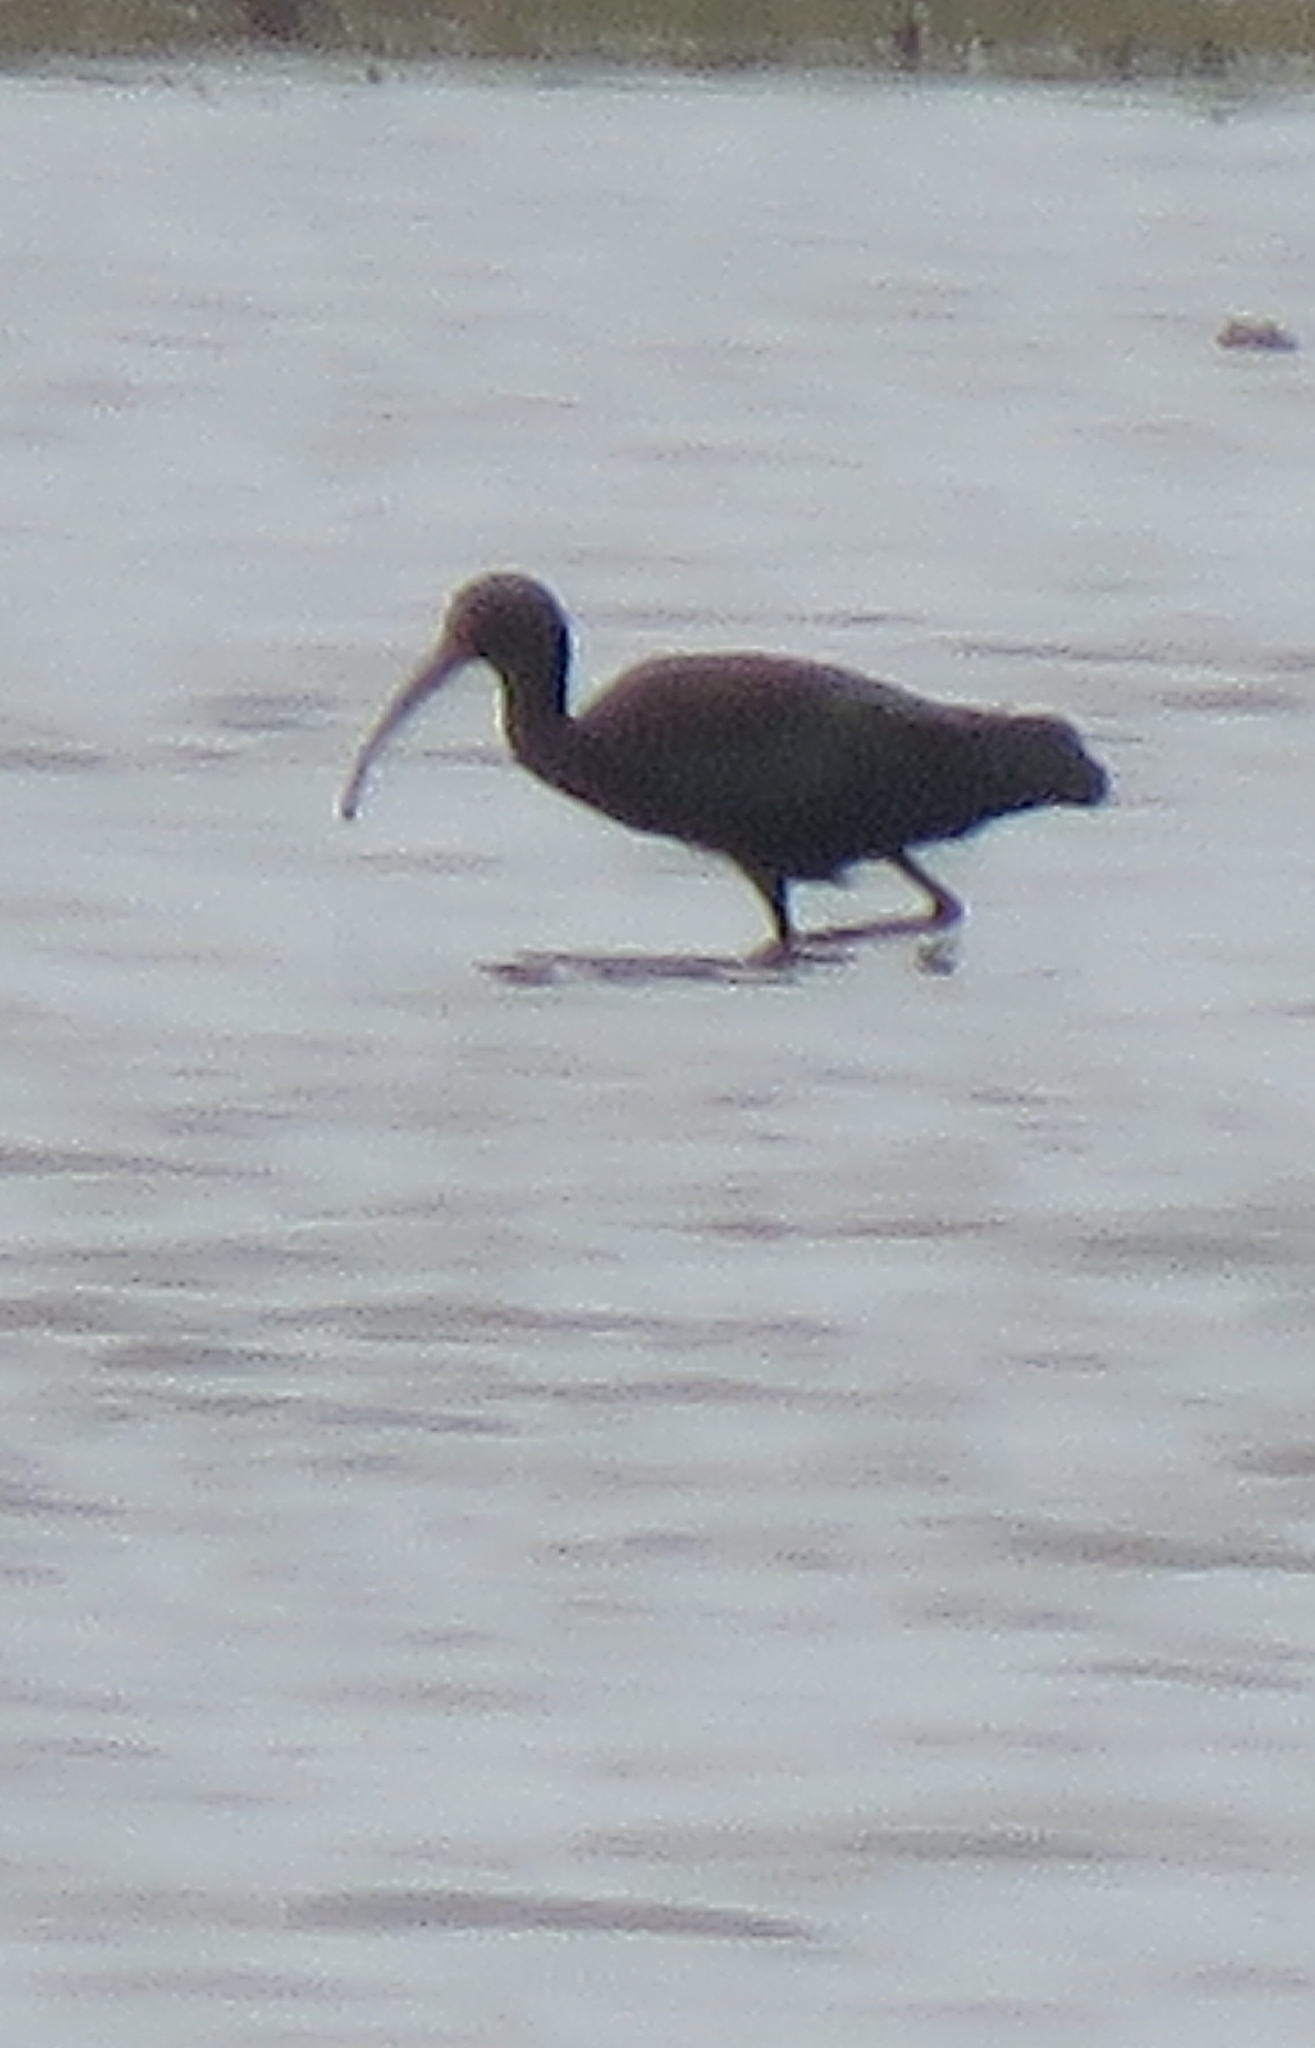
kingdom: Animalia
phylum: Chordata
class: Aves
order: Pelecaniformes
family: Threskiornithidae
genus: Plegadis
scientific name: Plegadis chihi
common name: White-faced ibis
